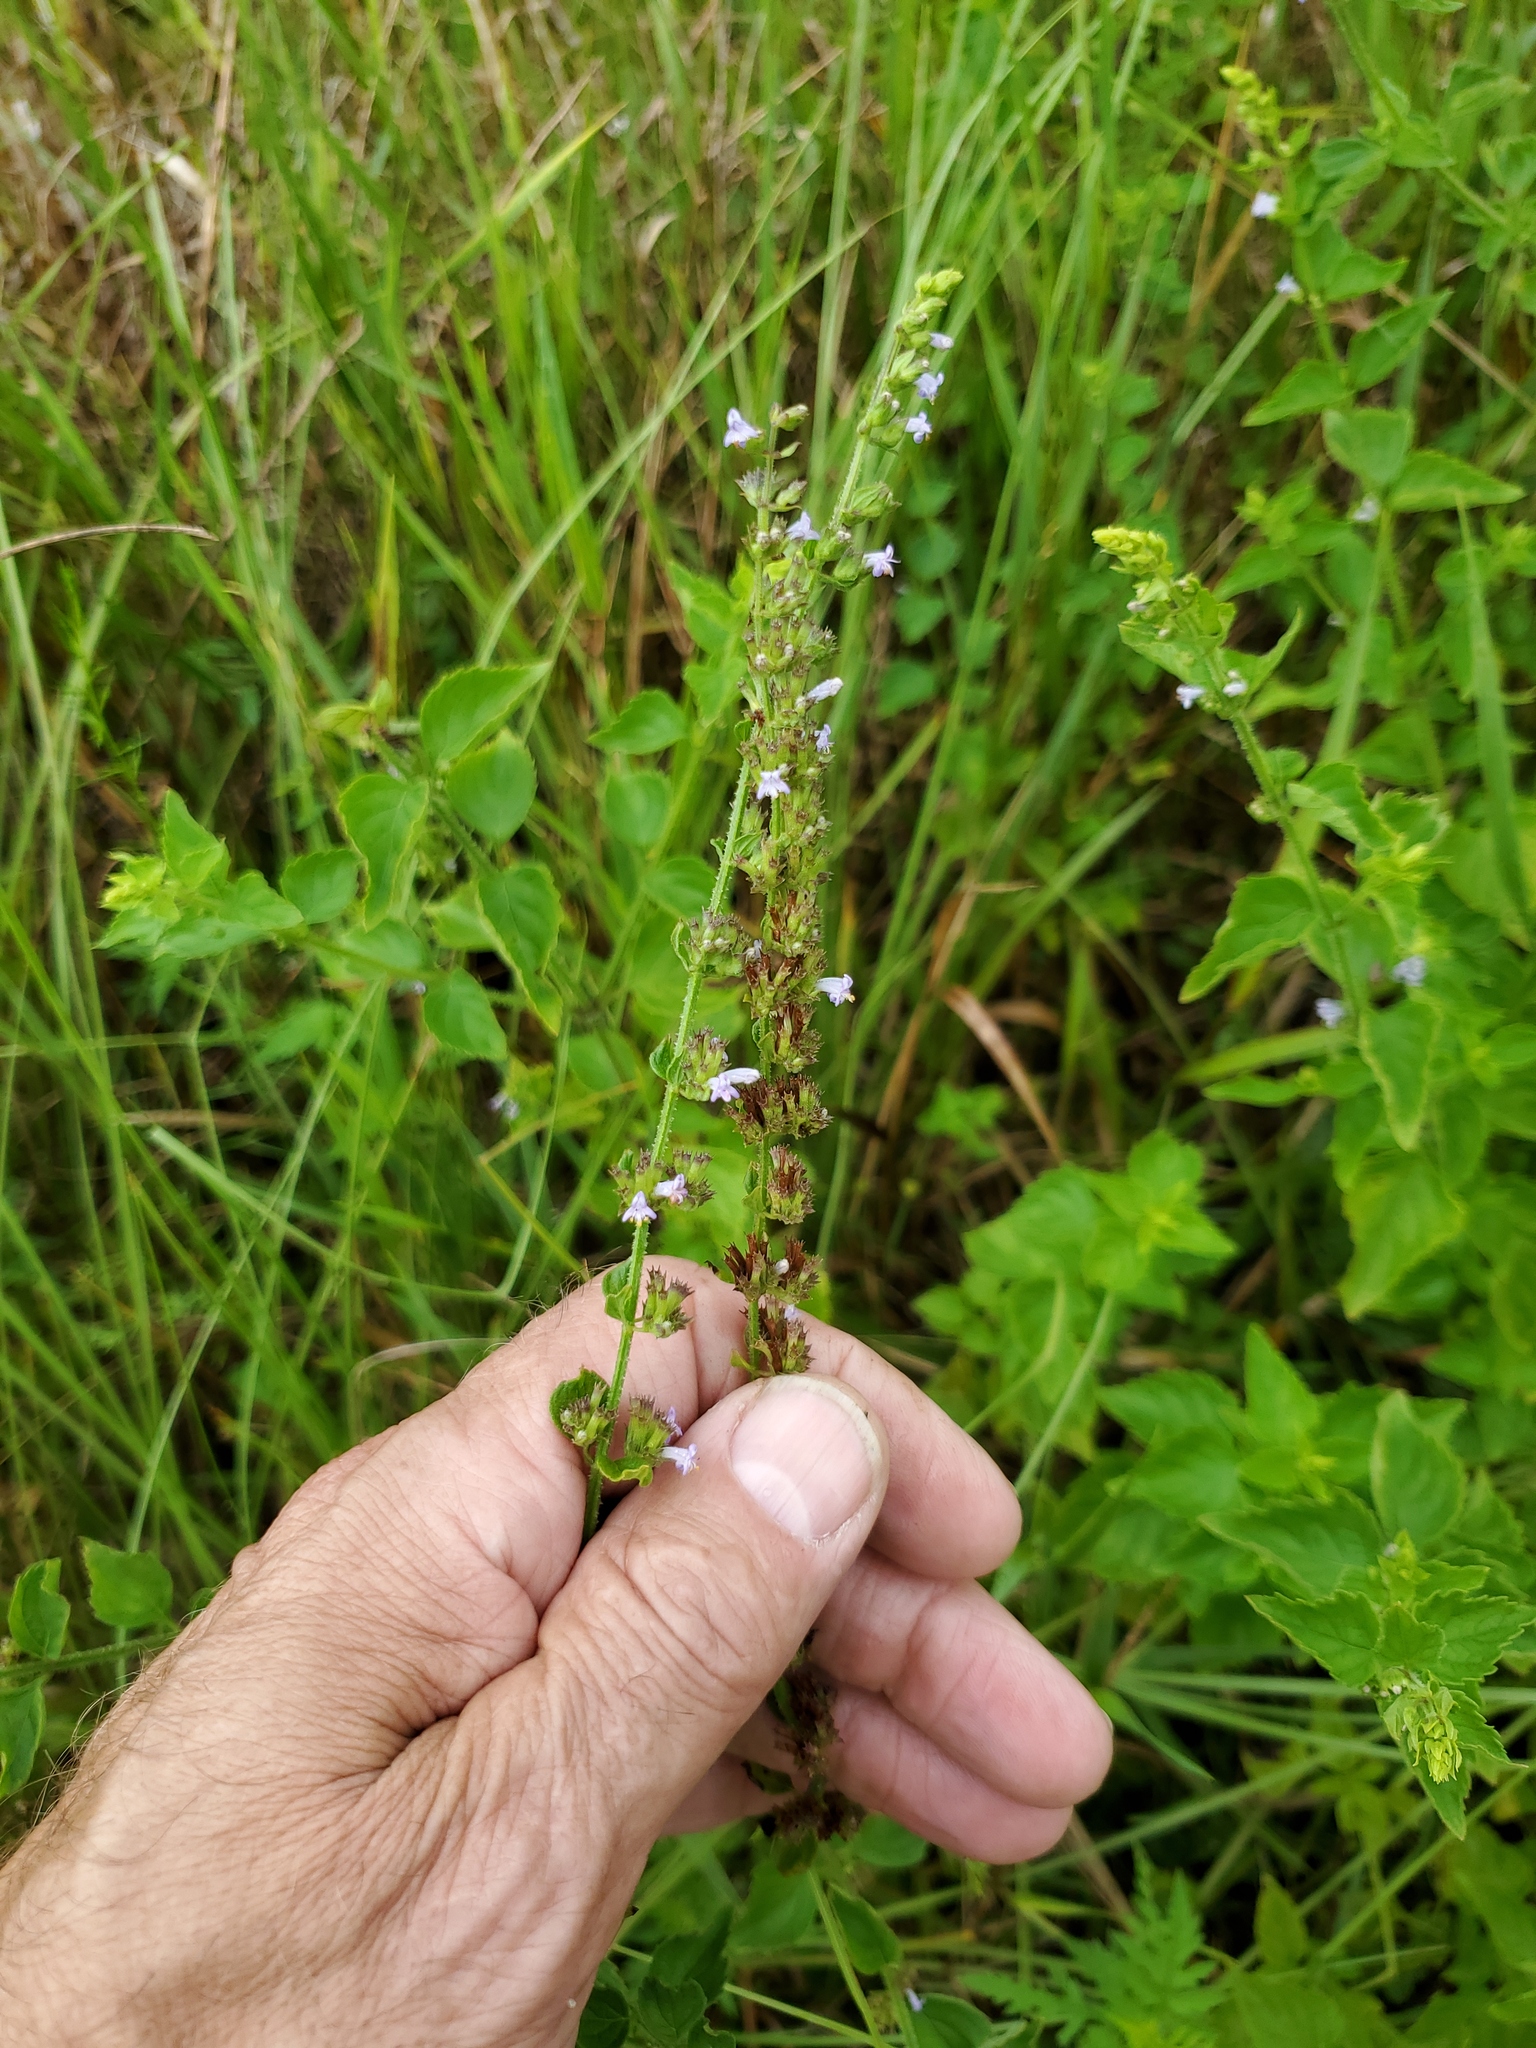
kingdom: Plantae
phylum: Tracheophyta
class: Magnoliopsida
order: Lamiales
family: Lamiaceae
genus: Cantinoa
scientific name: Cantinoa mutabilis
